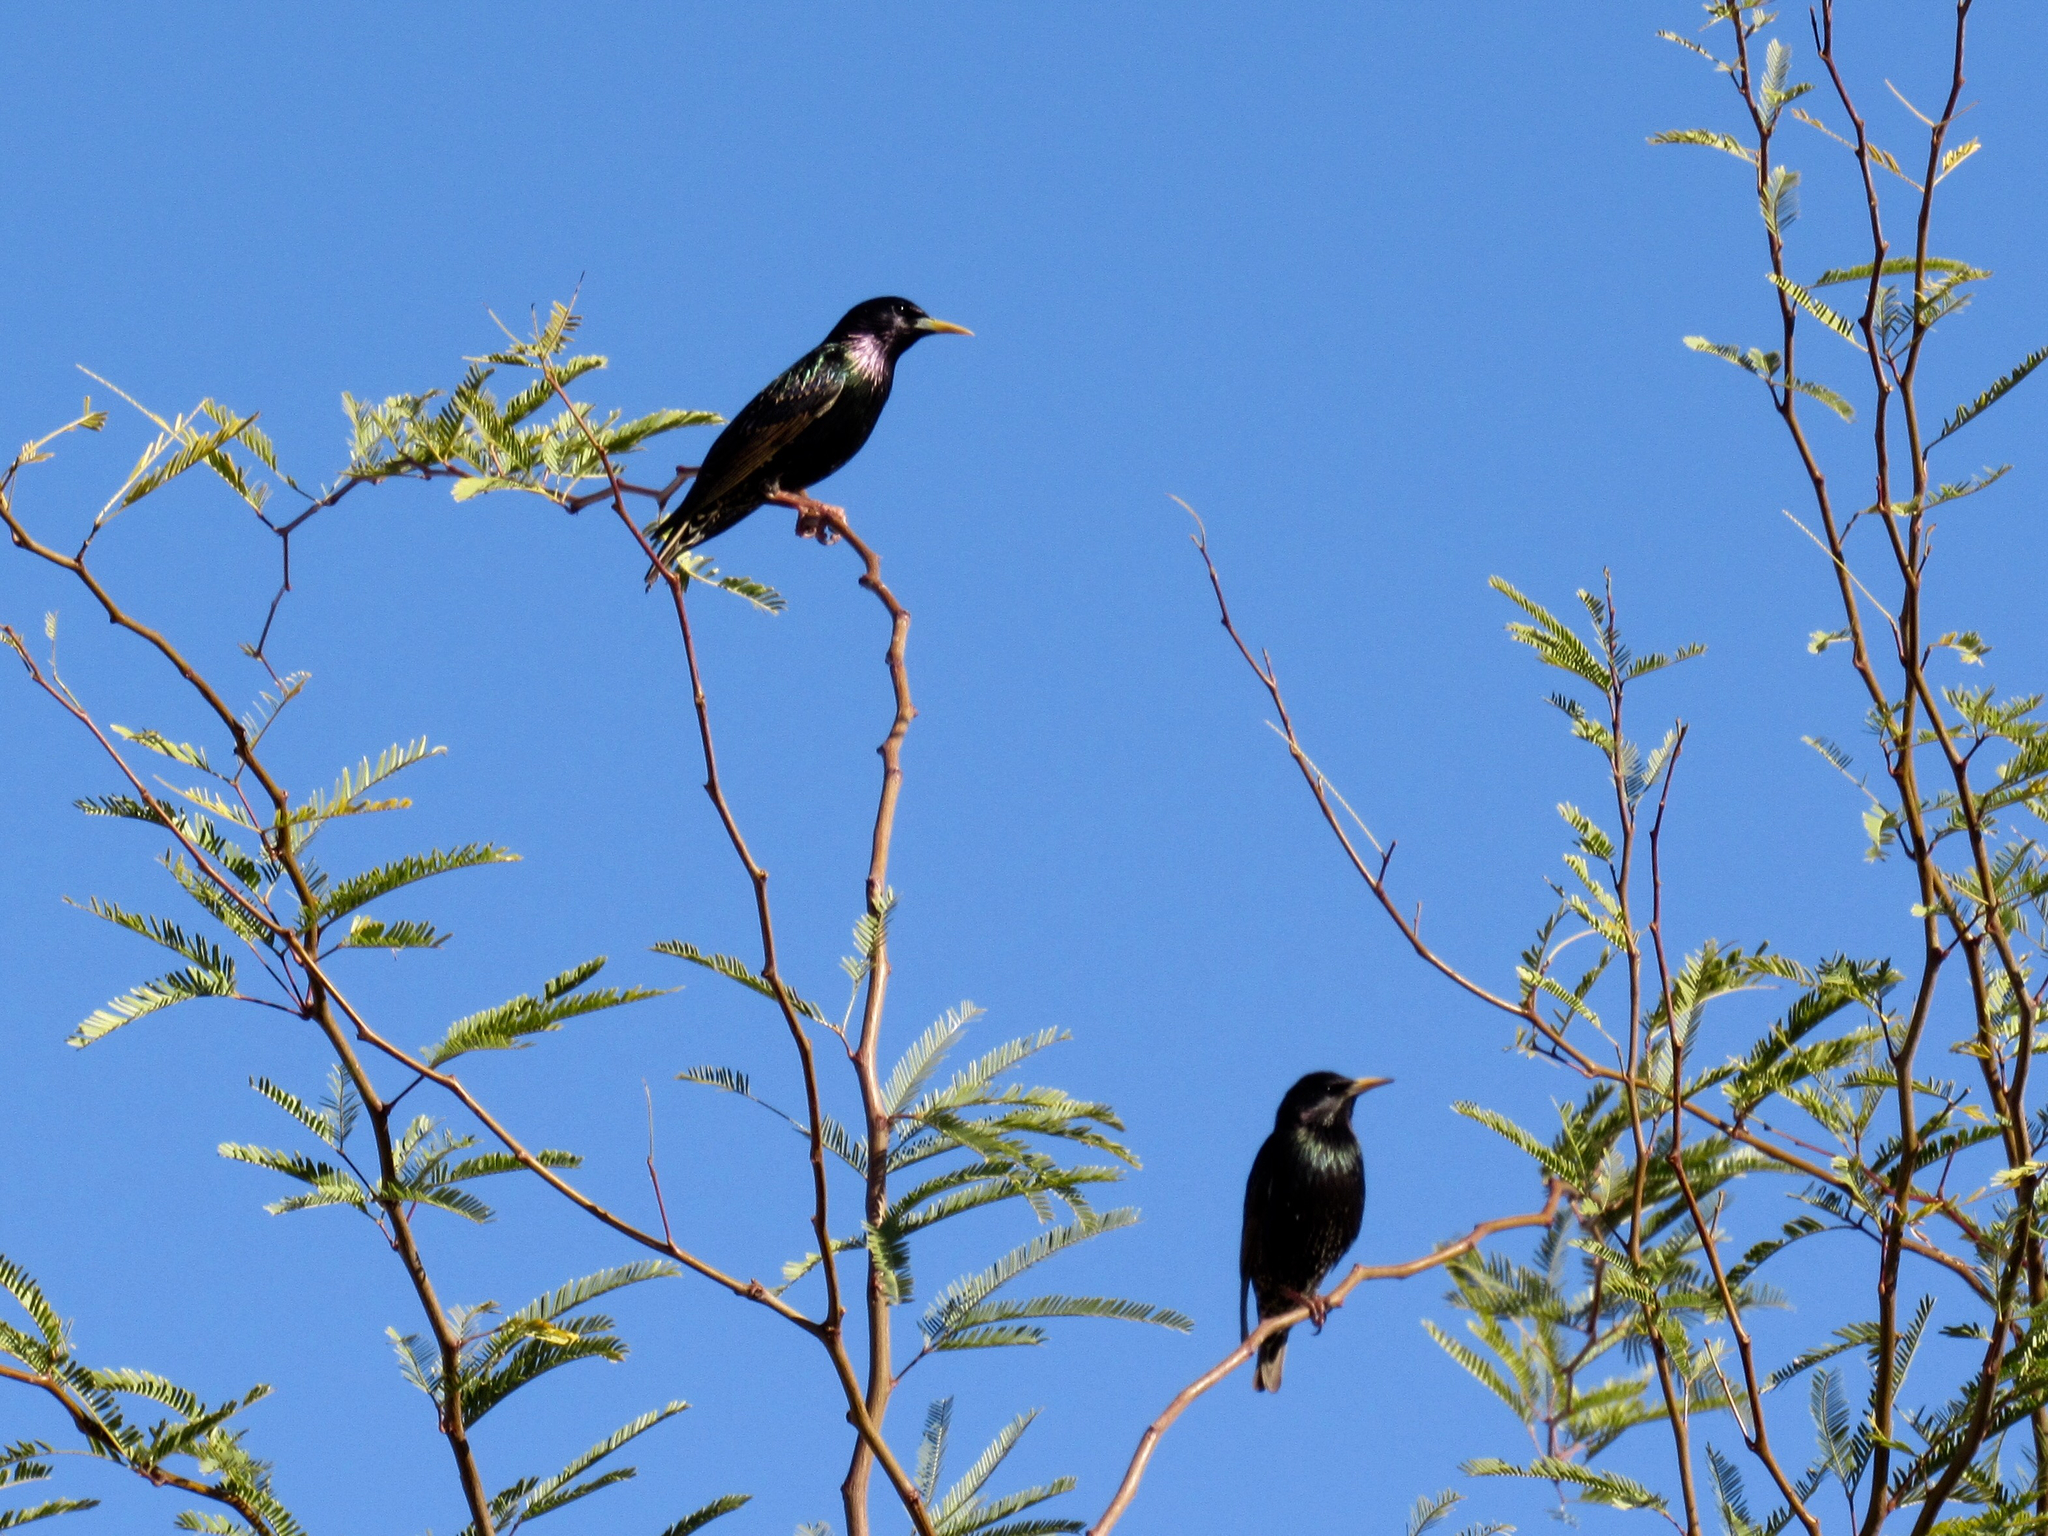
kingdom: Animalia
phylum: Chordata
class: Aves
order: Passeriformes
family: Sturnidae
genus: Sturnus
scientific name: Sturnus vulgaris
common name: Common starling
